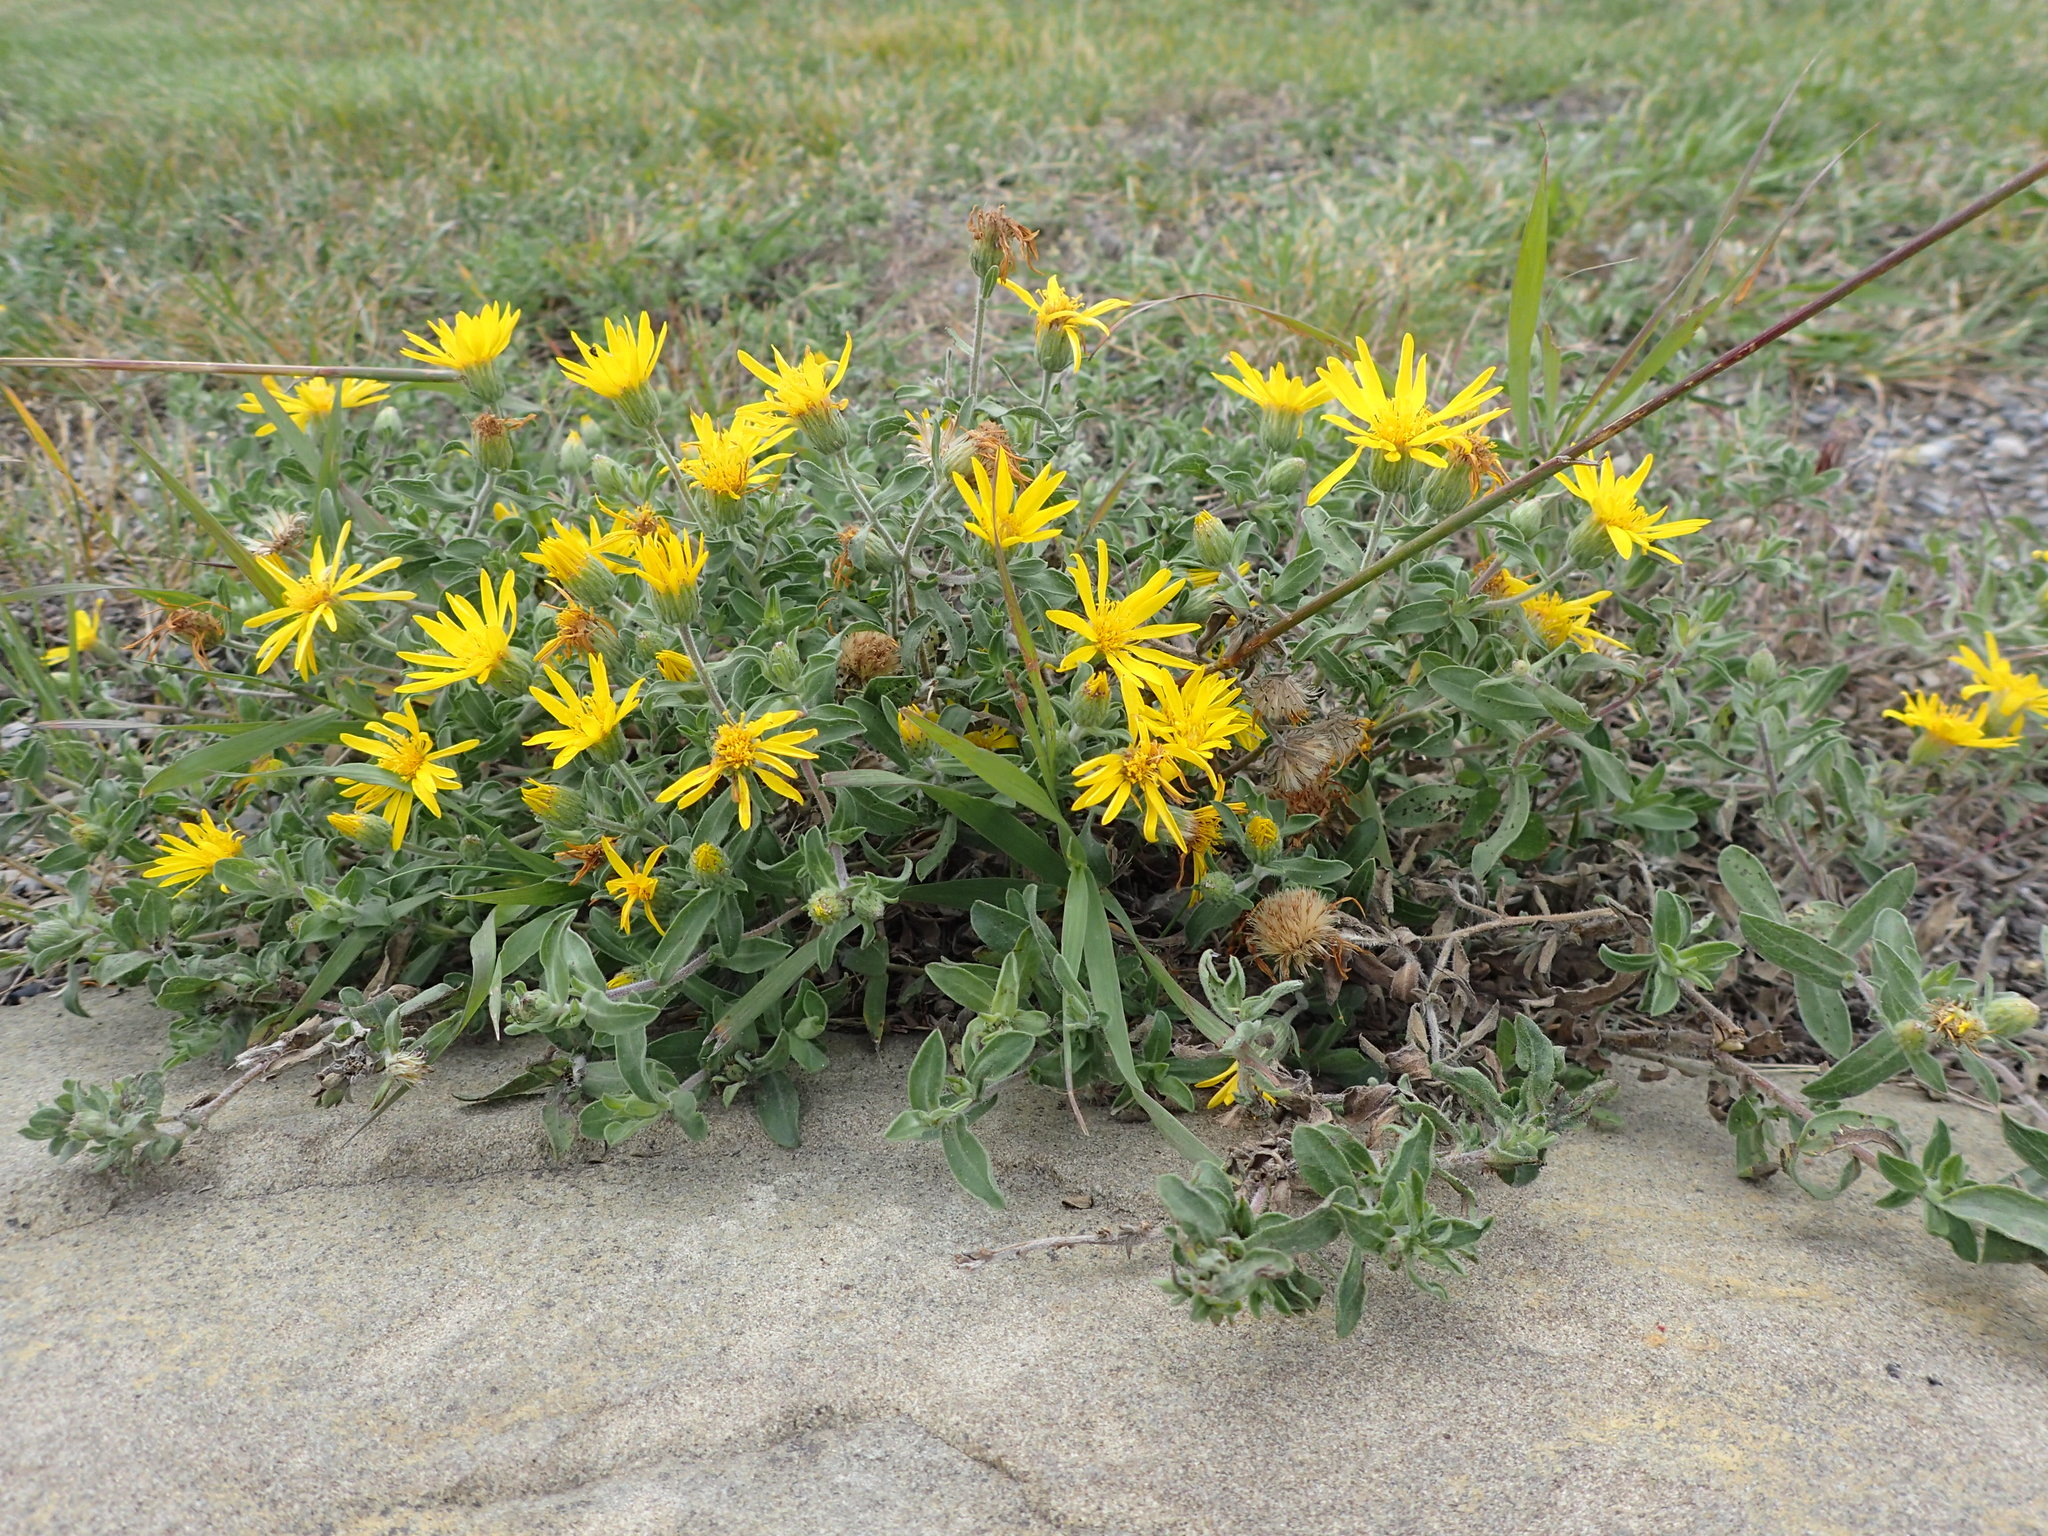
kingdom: Plantae
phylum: Tracheophyta
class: Magnoliopsida
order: Asterales
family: Asteraceae
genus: Heterotheca
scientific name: Heterotheca villosa
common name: Hairy false goldenaster
